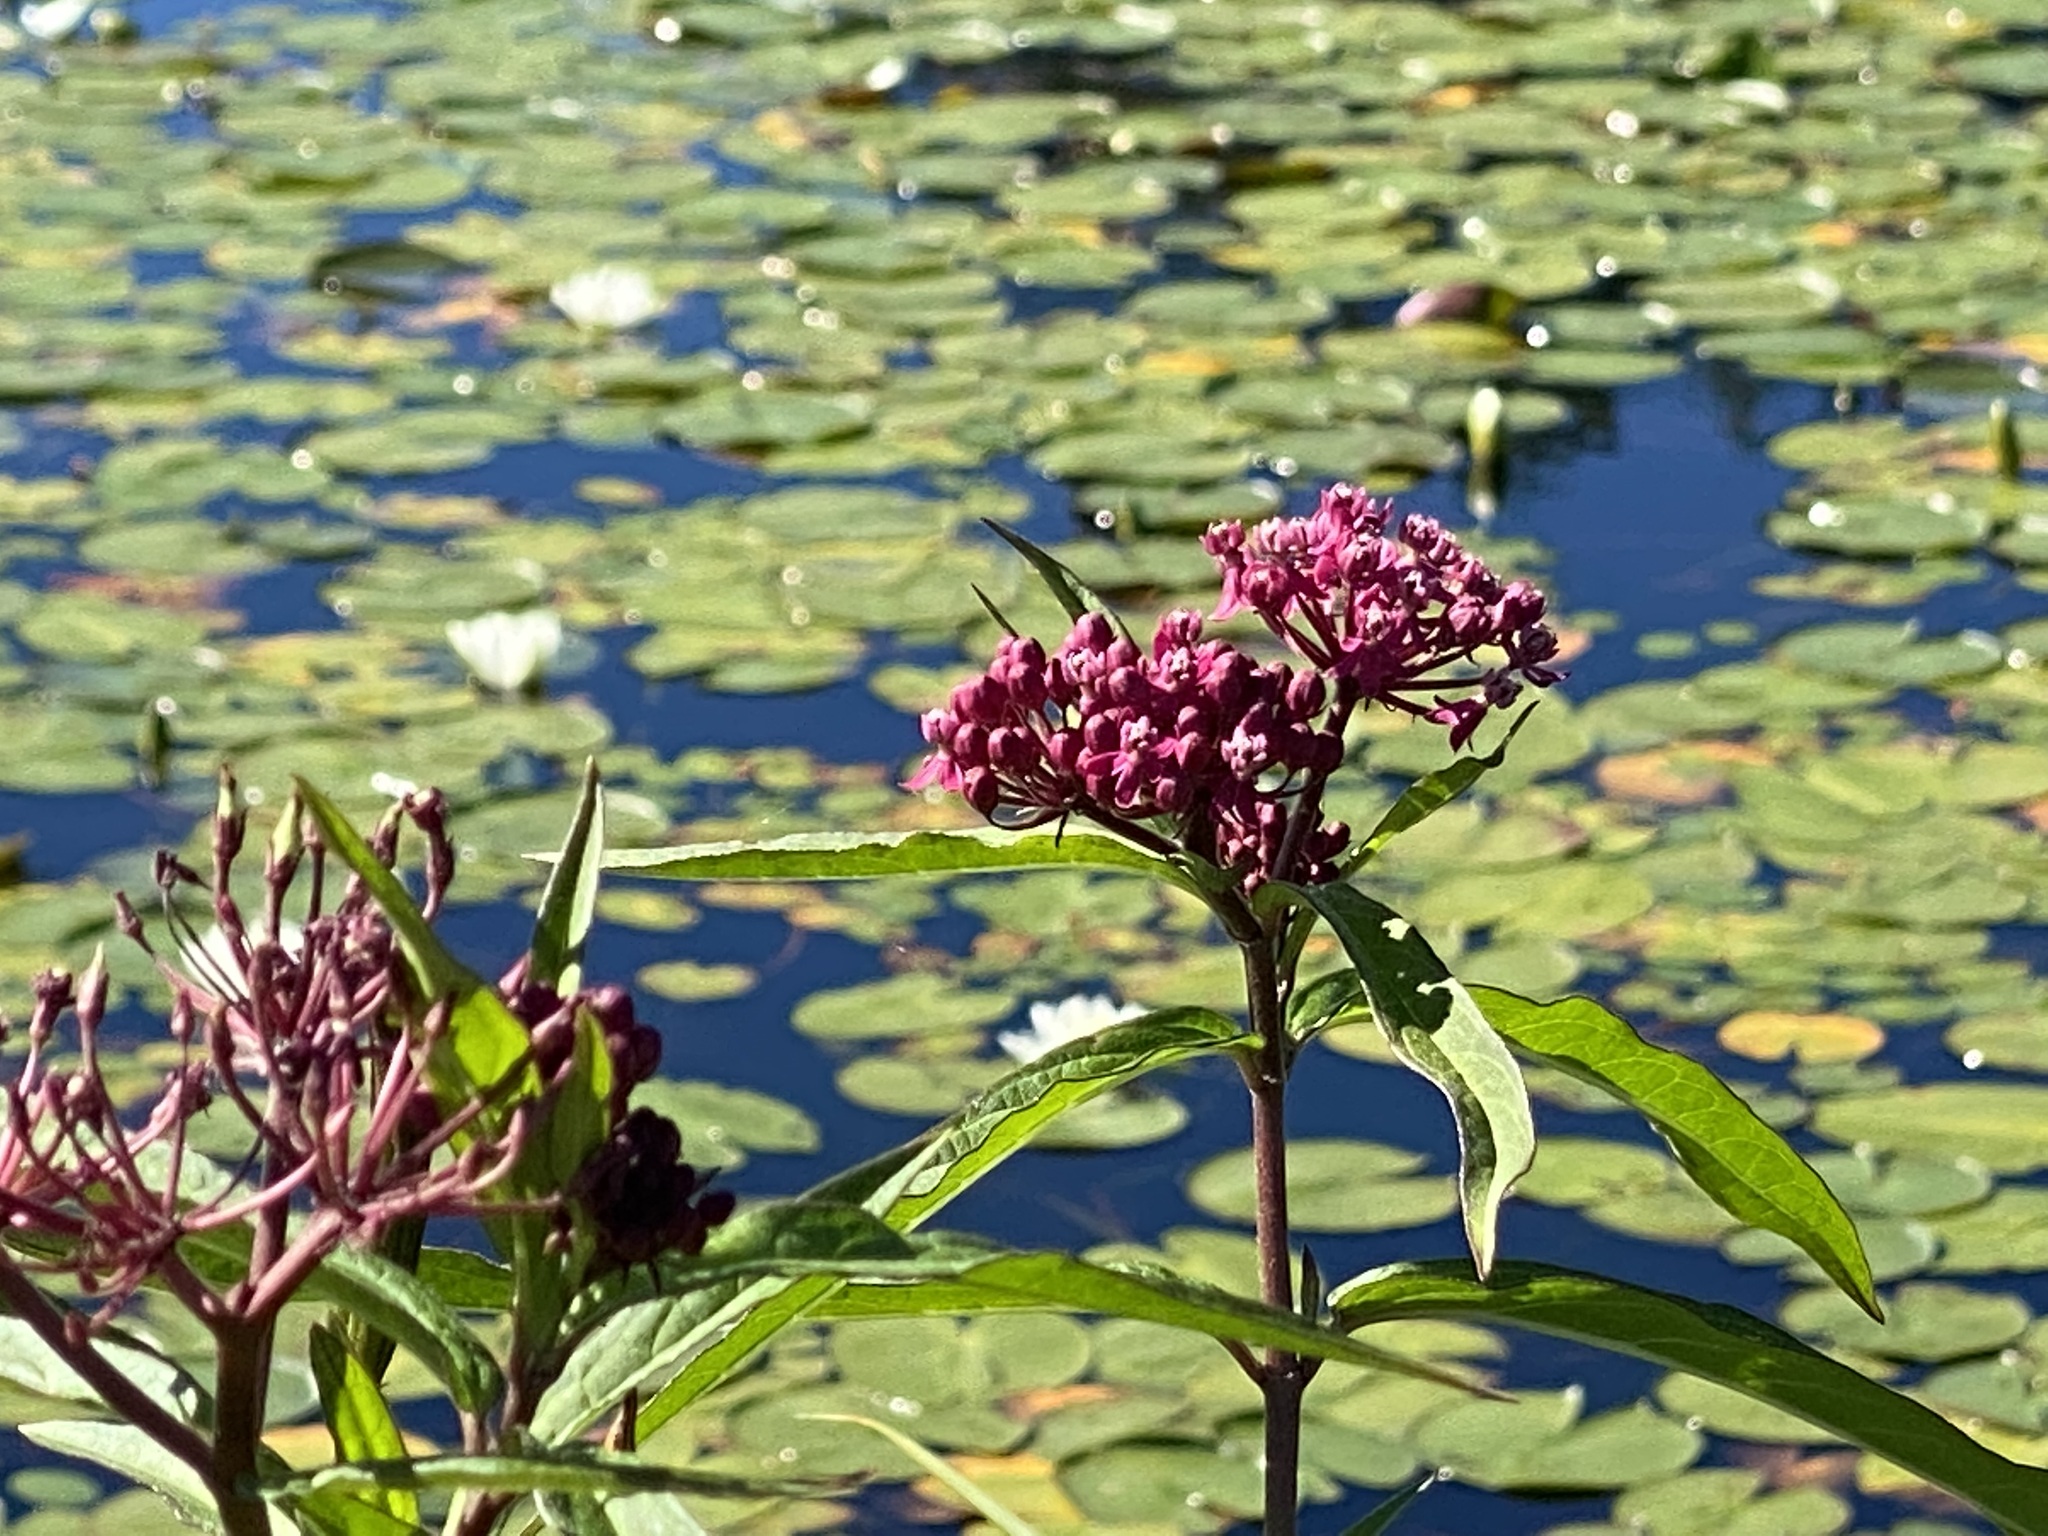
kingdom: Plantae
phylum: Tracheophyta
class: Magnoliopsida
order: Gentianales
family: Apocynaceae
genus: Asclepias
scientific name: Asclepias incarnata
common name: Swamp milkweed
